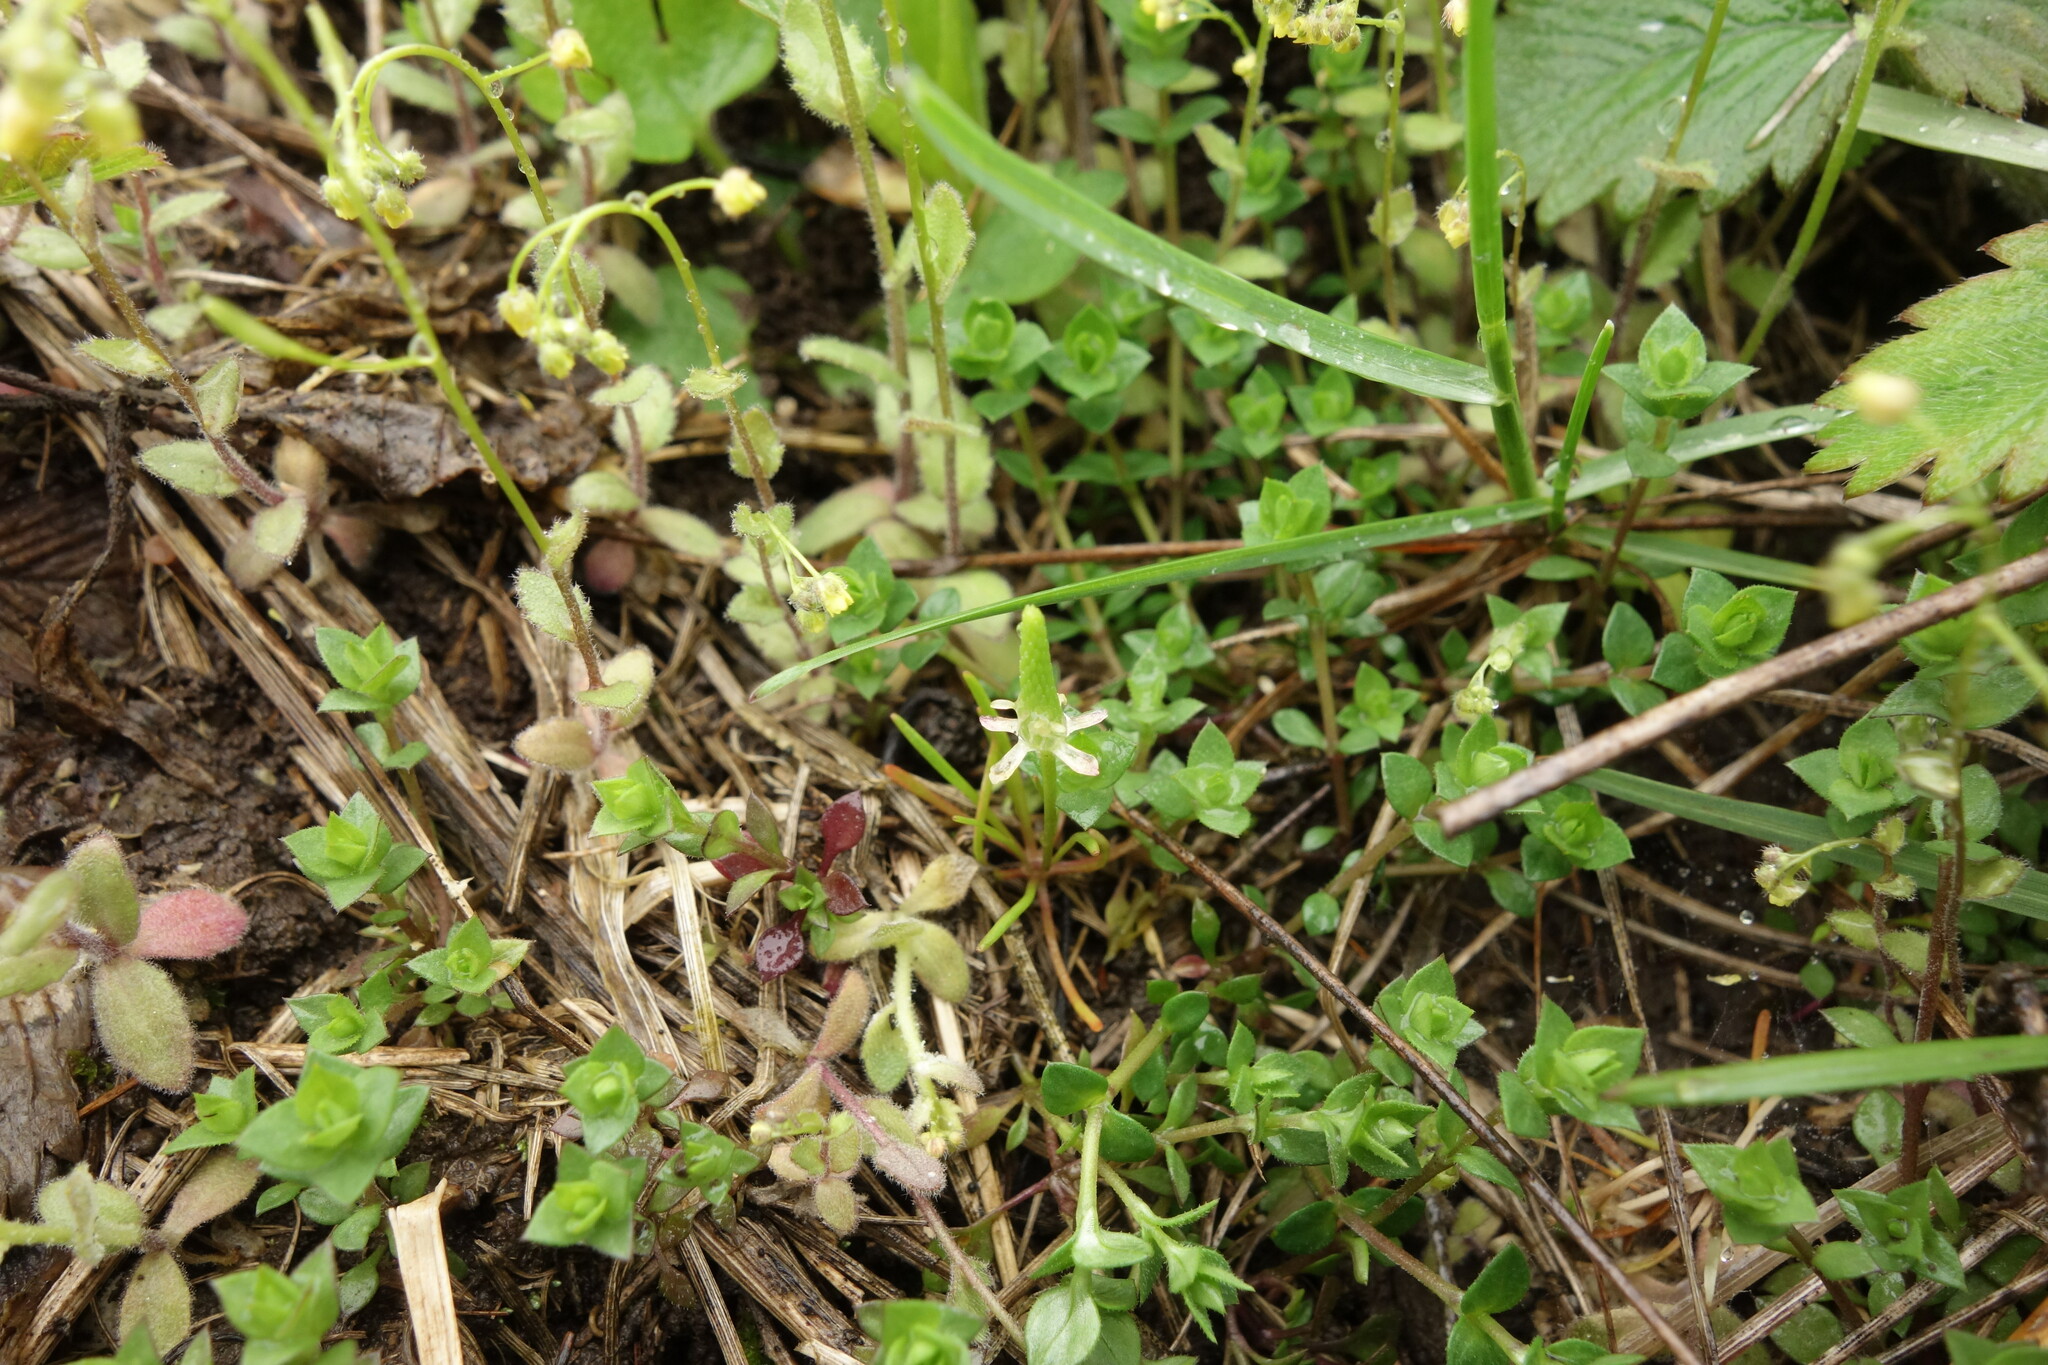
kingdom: Plantae
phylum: Tracheophyta
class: Magnoliopsida
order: Ranunculales
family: Ranunculaceae
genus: Myosurus
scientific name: Myosurus minimus
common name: Mousetail
